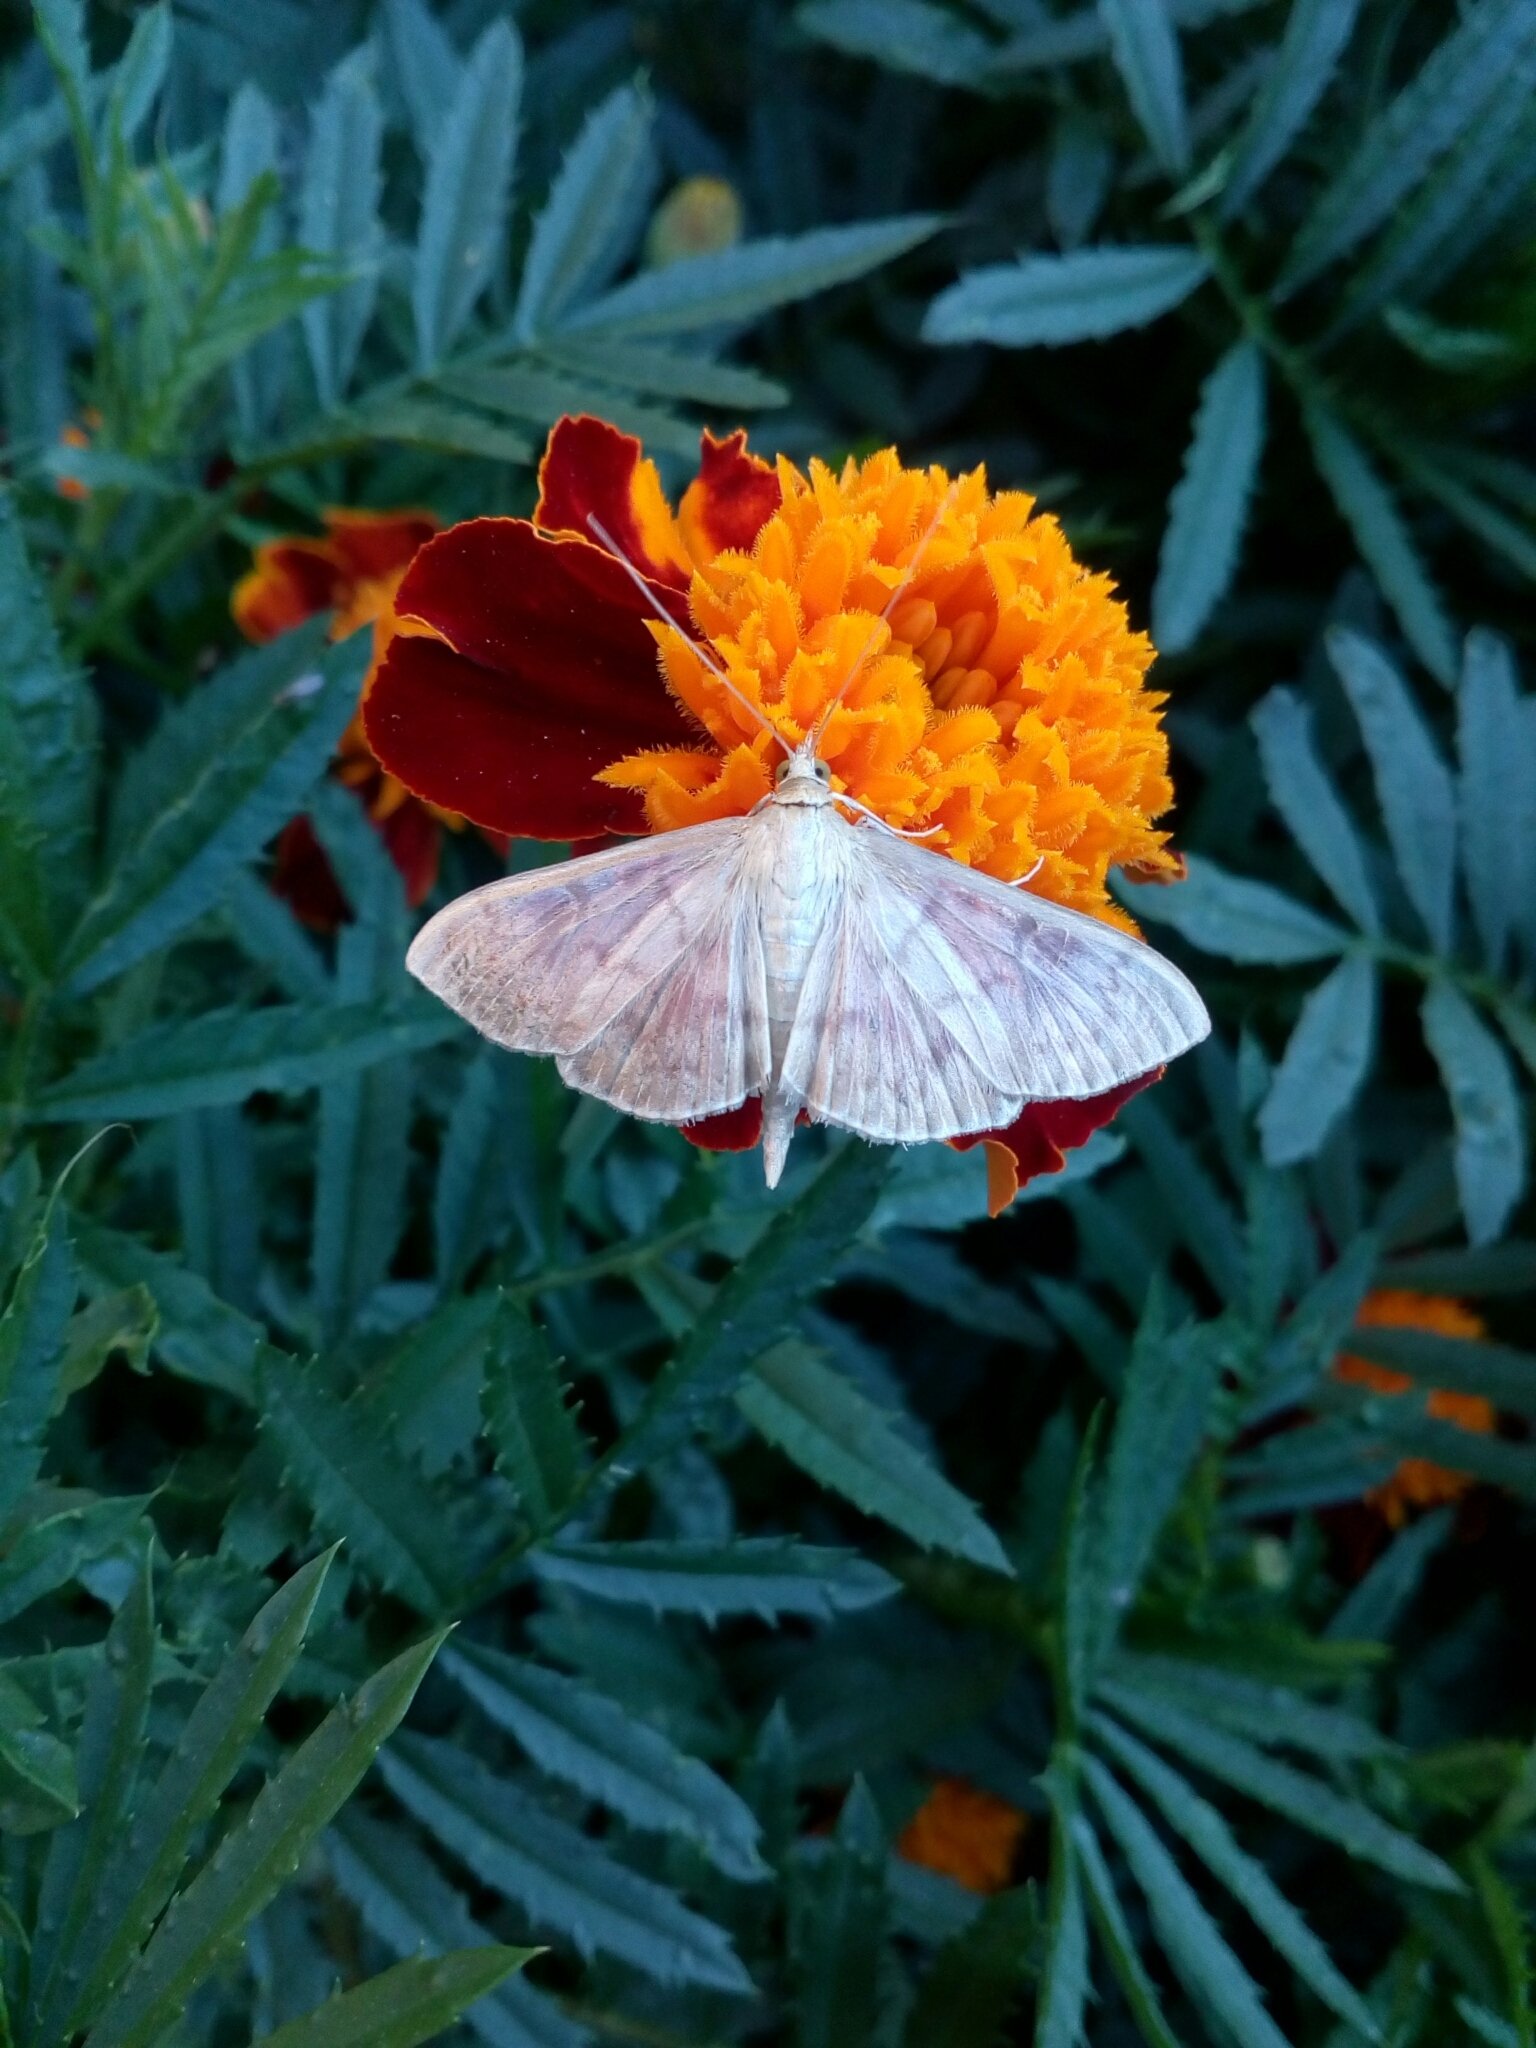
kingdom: Animalia
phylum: Arthropoda
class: Insecta
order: Lepidoptera
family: Crambidae
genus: Patania
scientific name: Patania ruralis
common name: Mother of pearl
